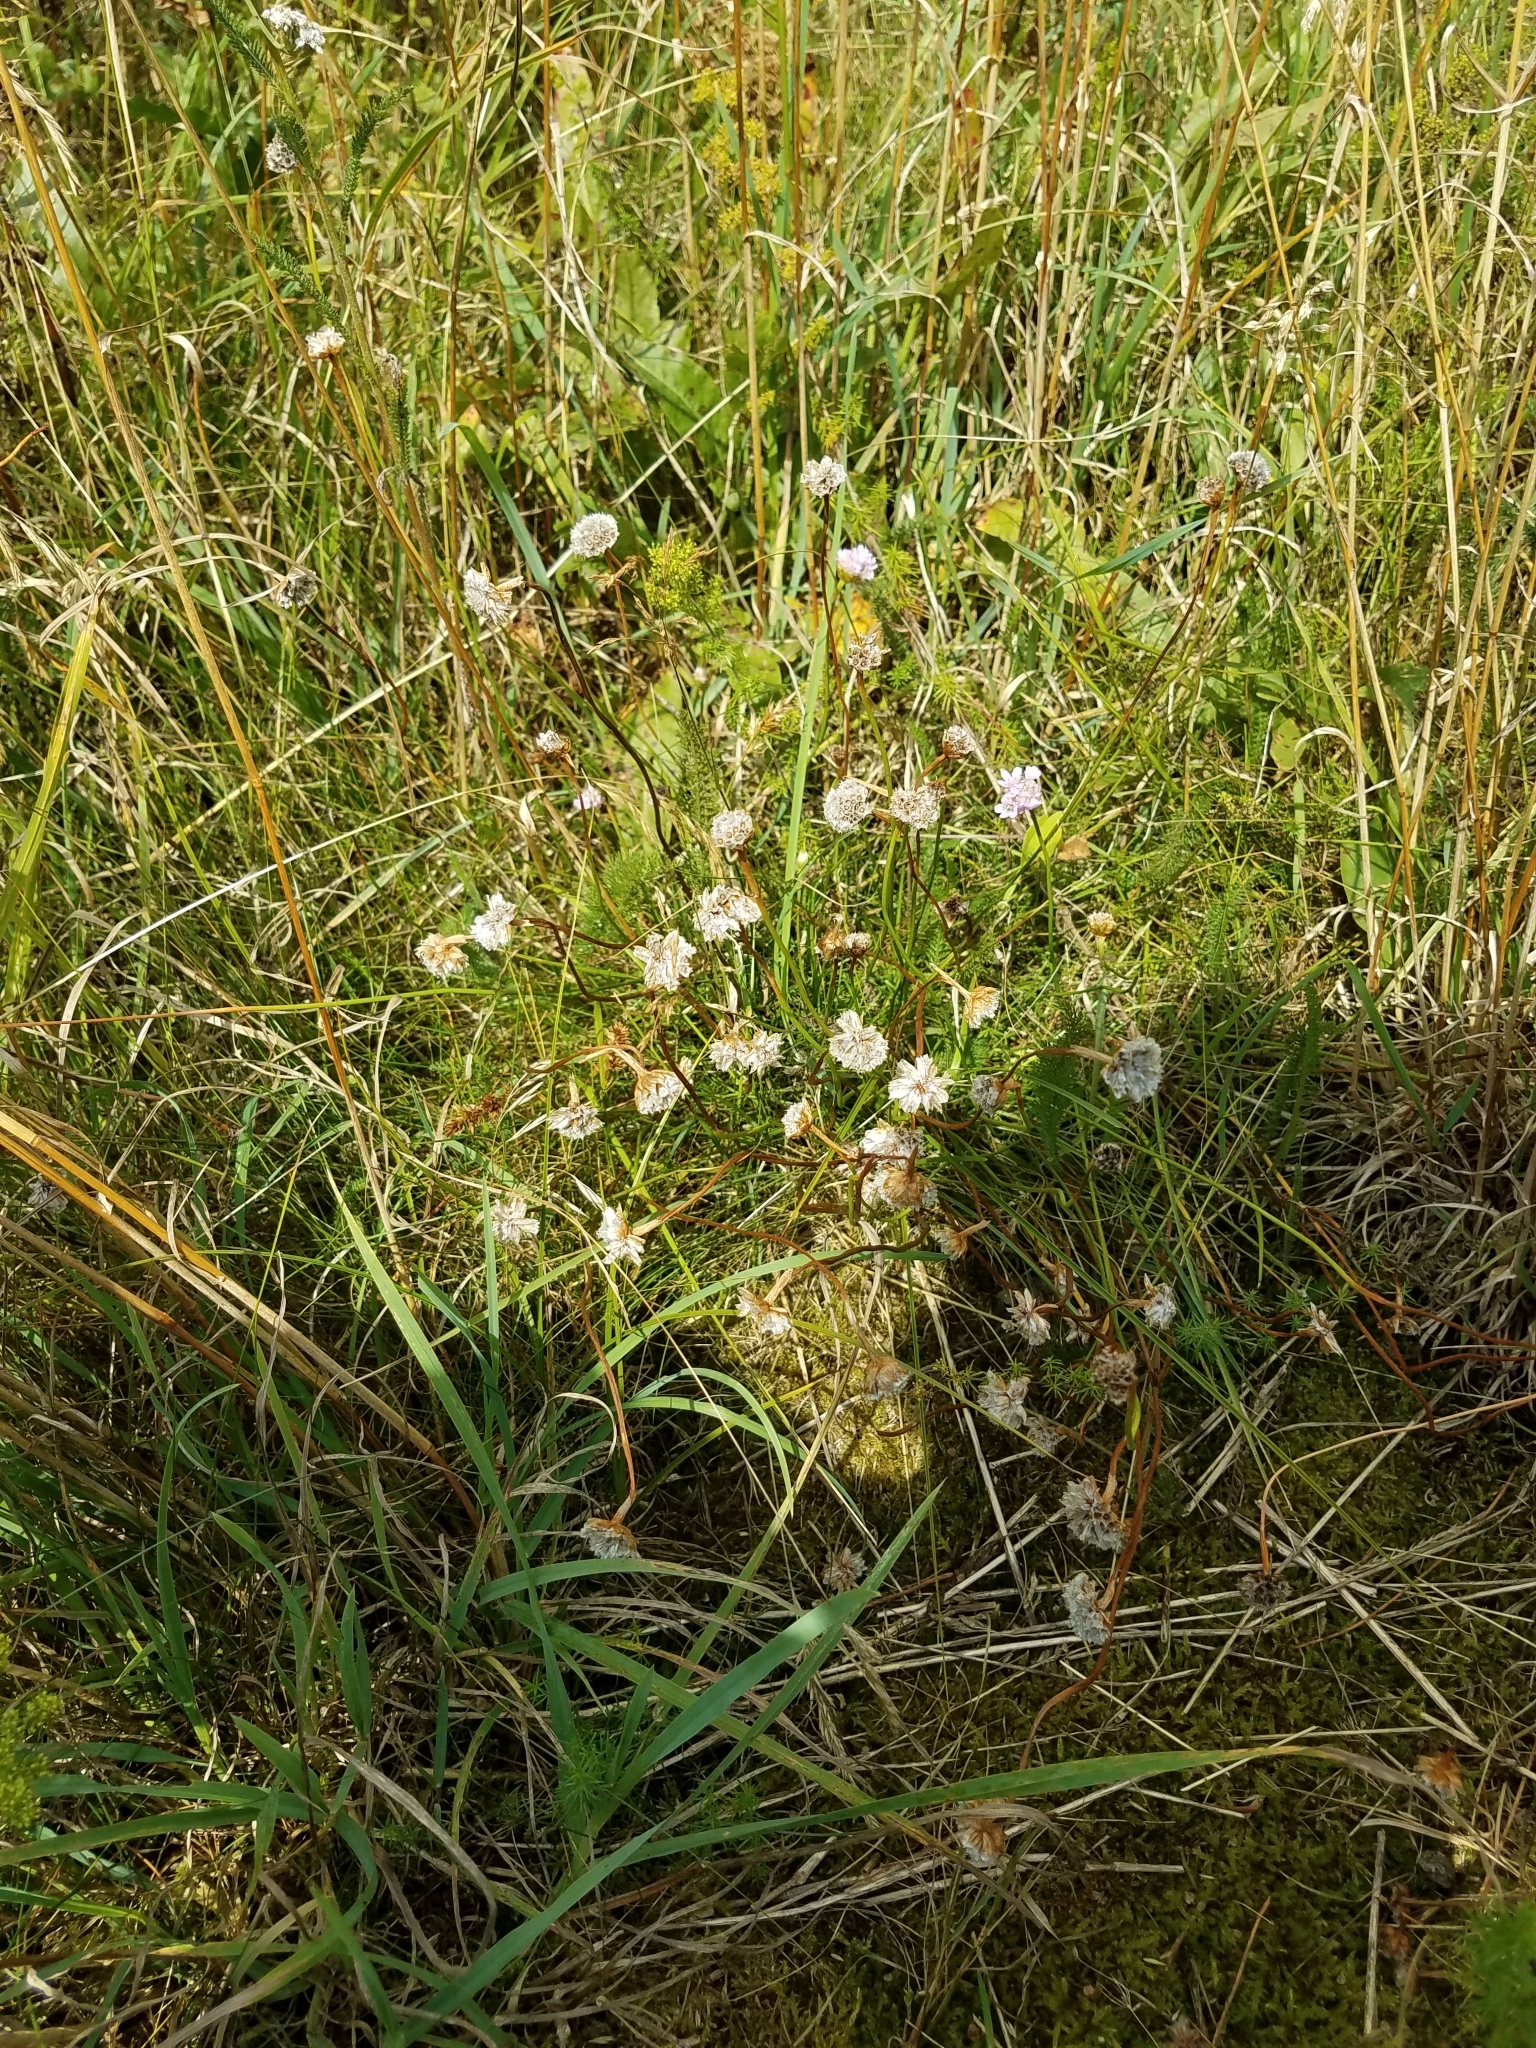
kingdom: Plantae
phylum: Tracheophyta
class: Magnoliopsida
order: Caryophyllales
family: Plumbaginaceae
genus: Armeria
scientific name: Armeria maritima
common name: Thrift
